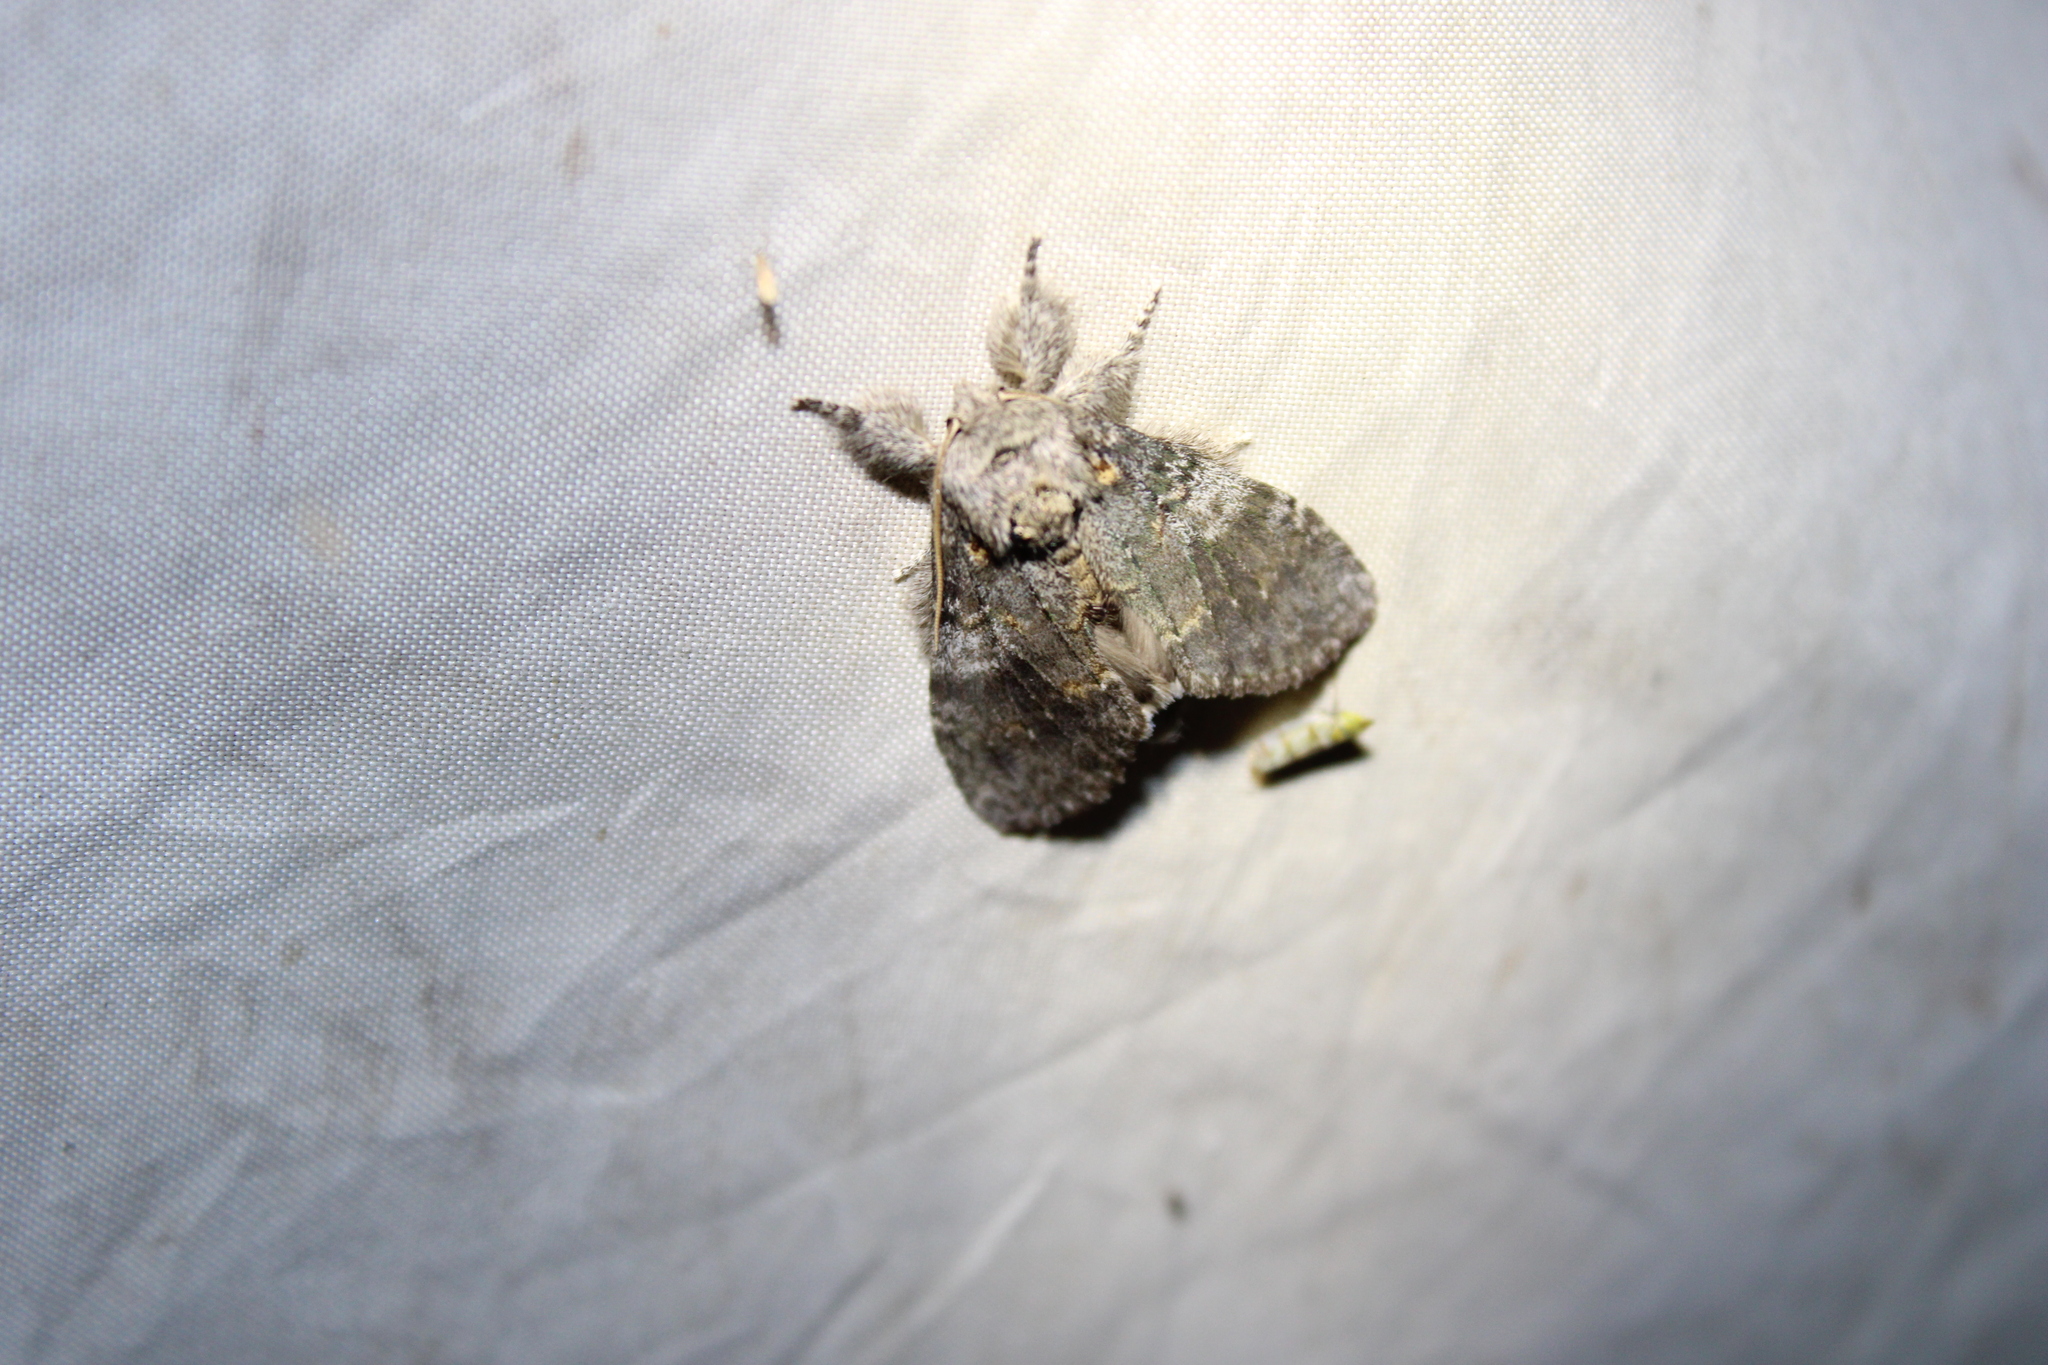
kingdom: Animalia
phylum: Arthropoda
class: Insecta
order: Lepidoptera
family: Notodontidae
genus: Peridea
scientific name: Peridea angulosa
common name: Angulose prominent
